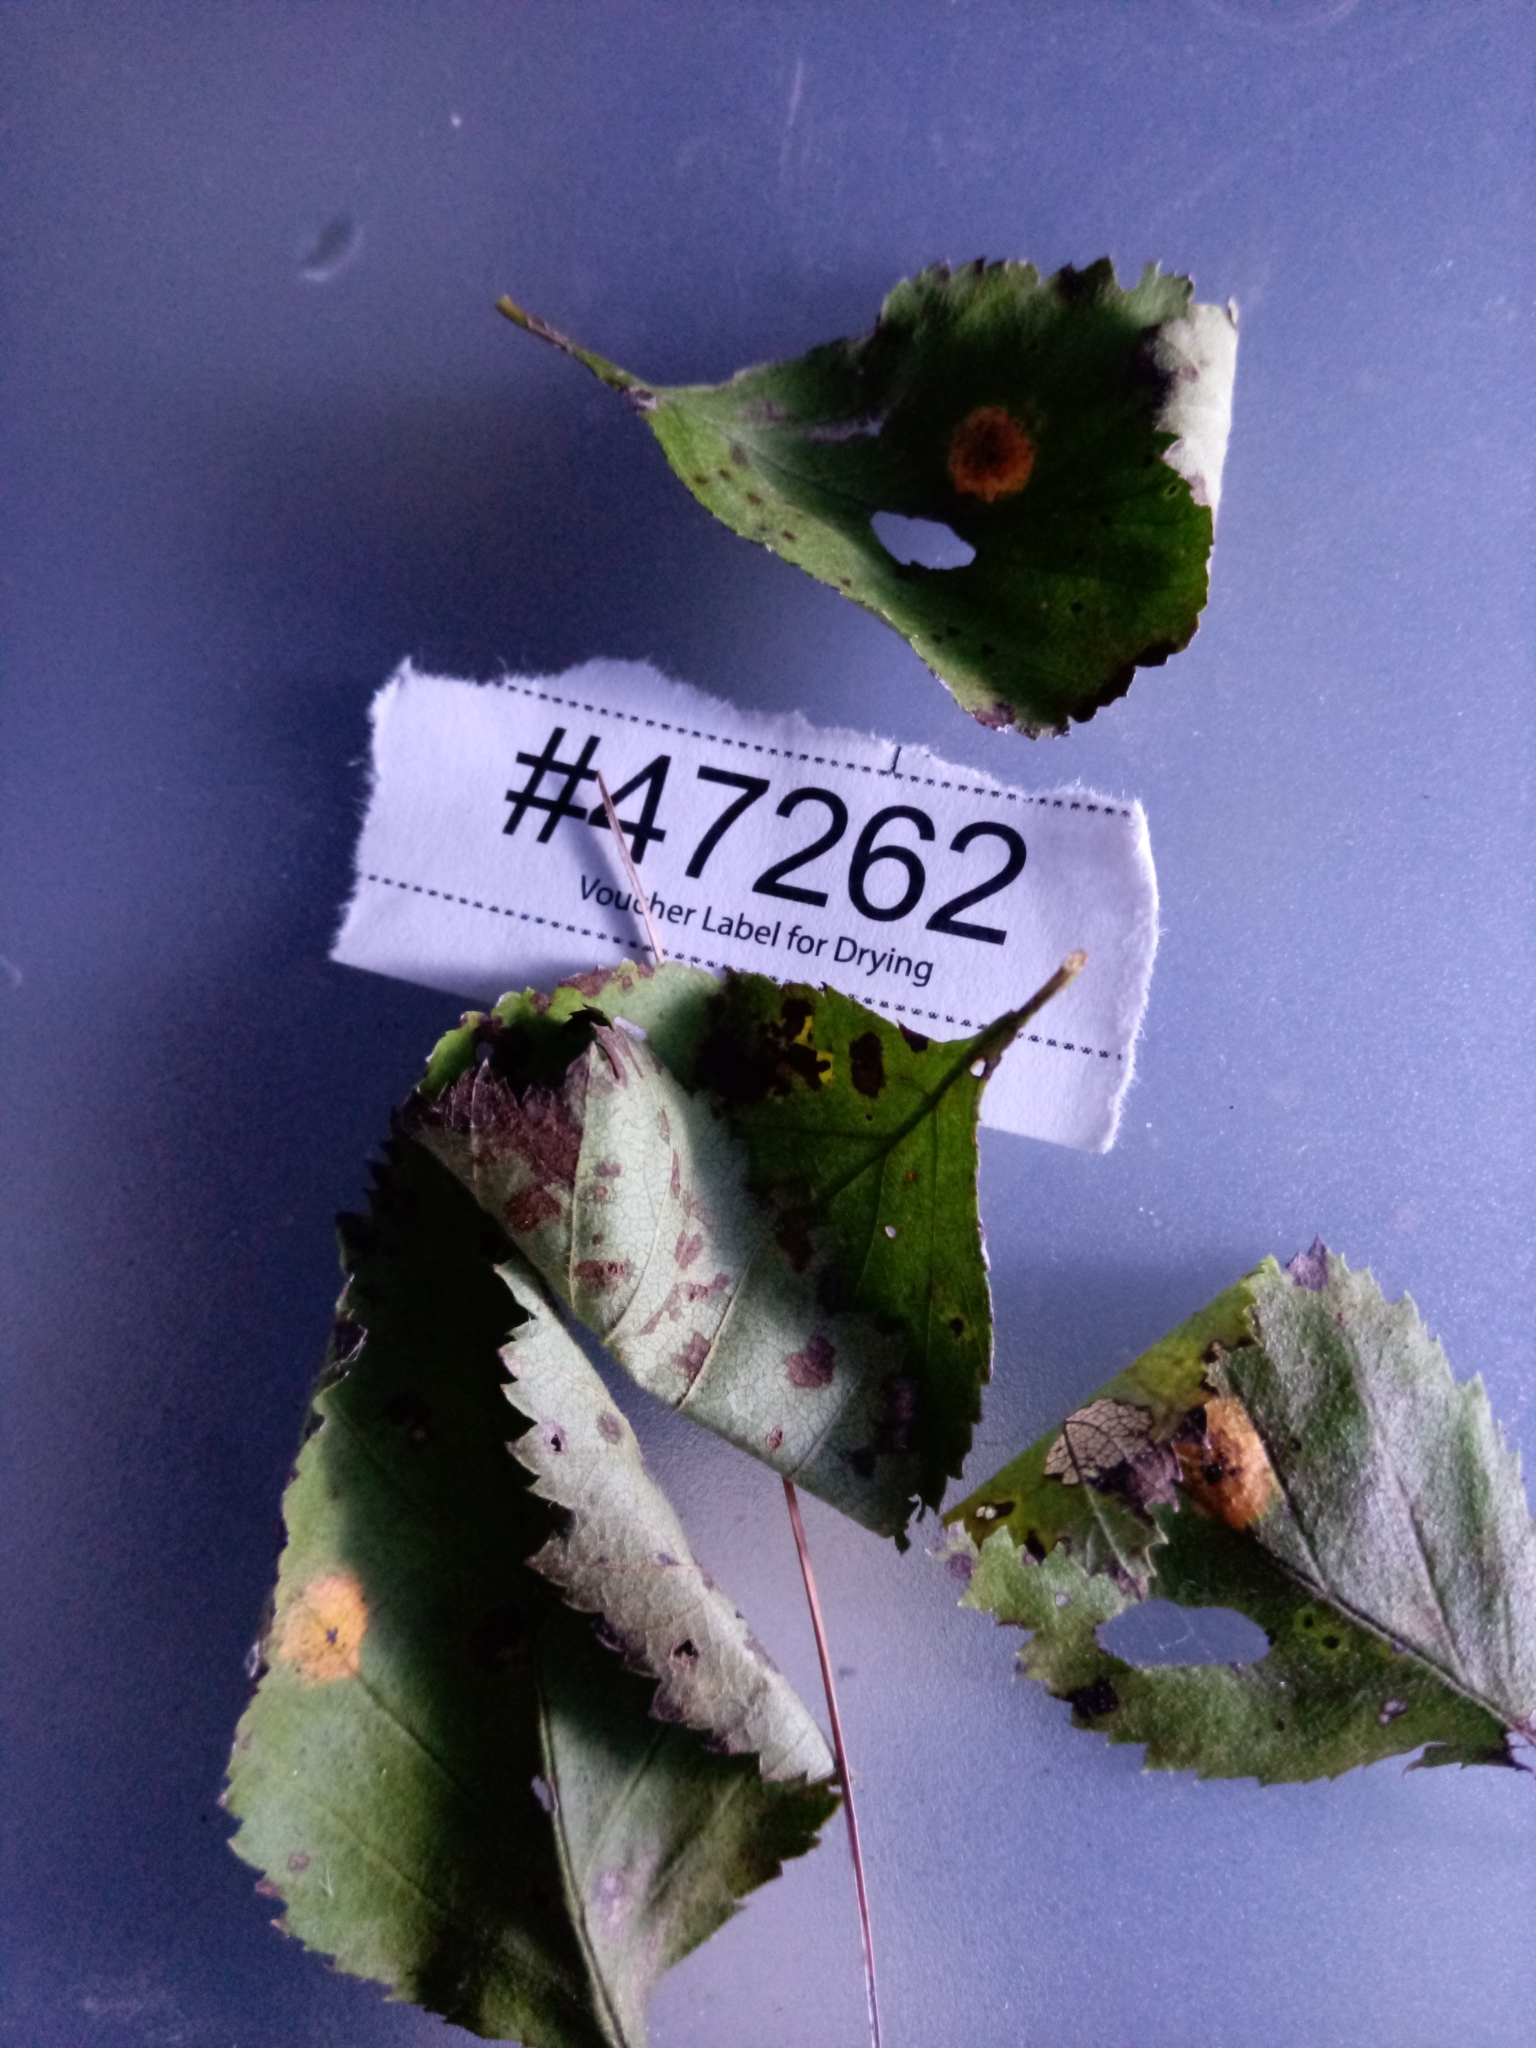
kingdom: Fungi
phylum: Basidiomycota
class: Pucciniomycetes
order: Pucciniales
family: Gymnosporangiaceae
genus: Gymnosporangium
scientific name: Gymnosporangium globosum
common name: Juniper-hawthorn rust
